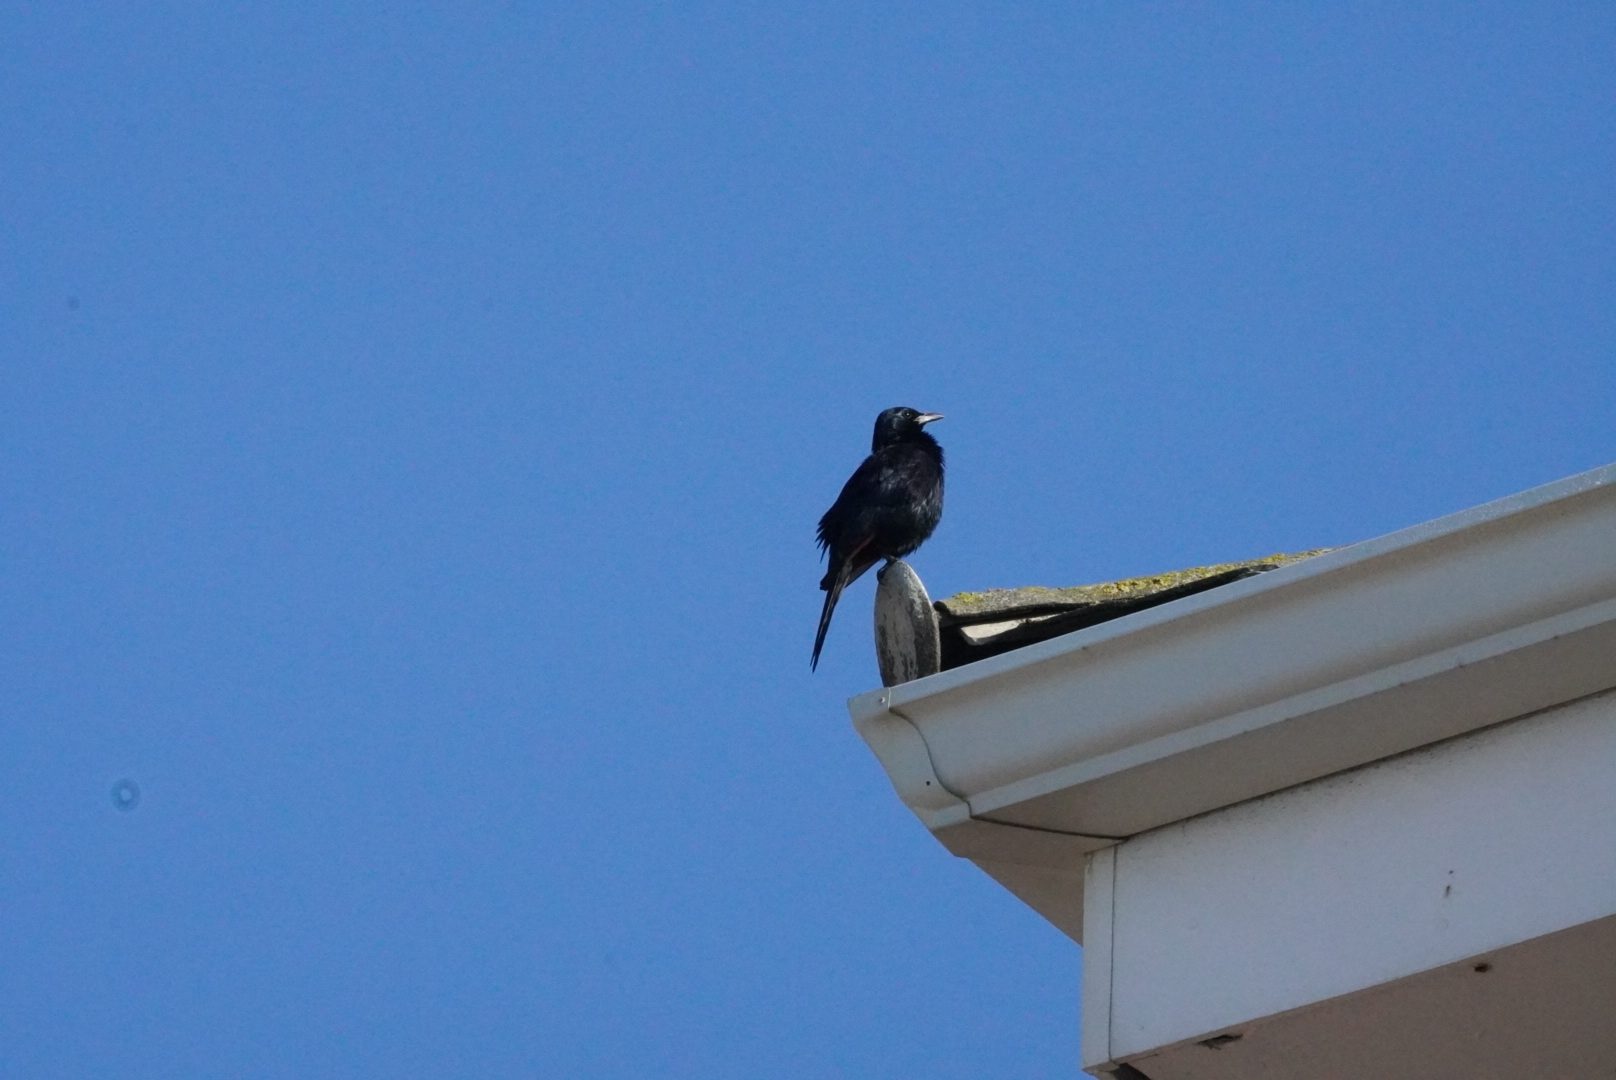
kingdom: Animalia
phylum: Chordata
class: Aves
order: Passeriformes
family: Sturnidae
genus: Onychognathus
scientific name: Onychognathus morio
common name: Red-winged starling
